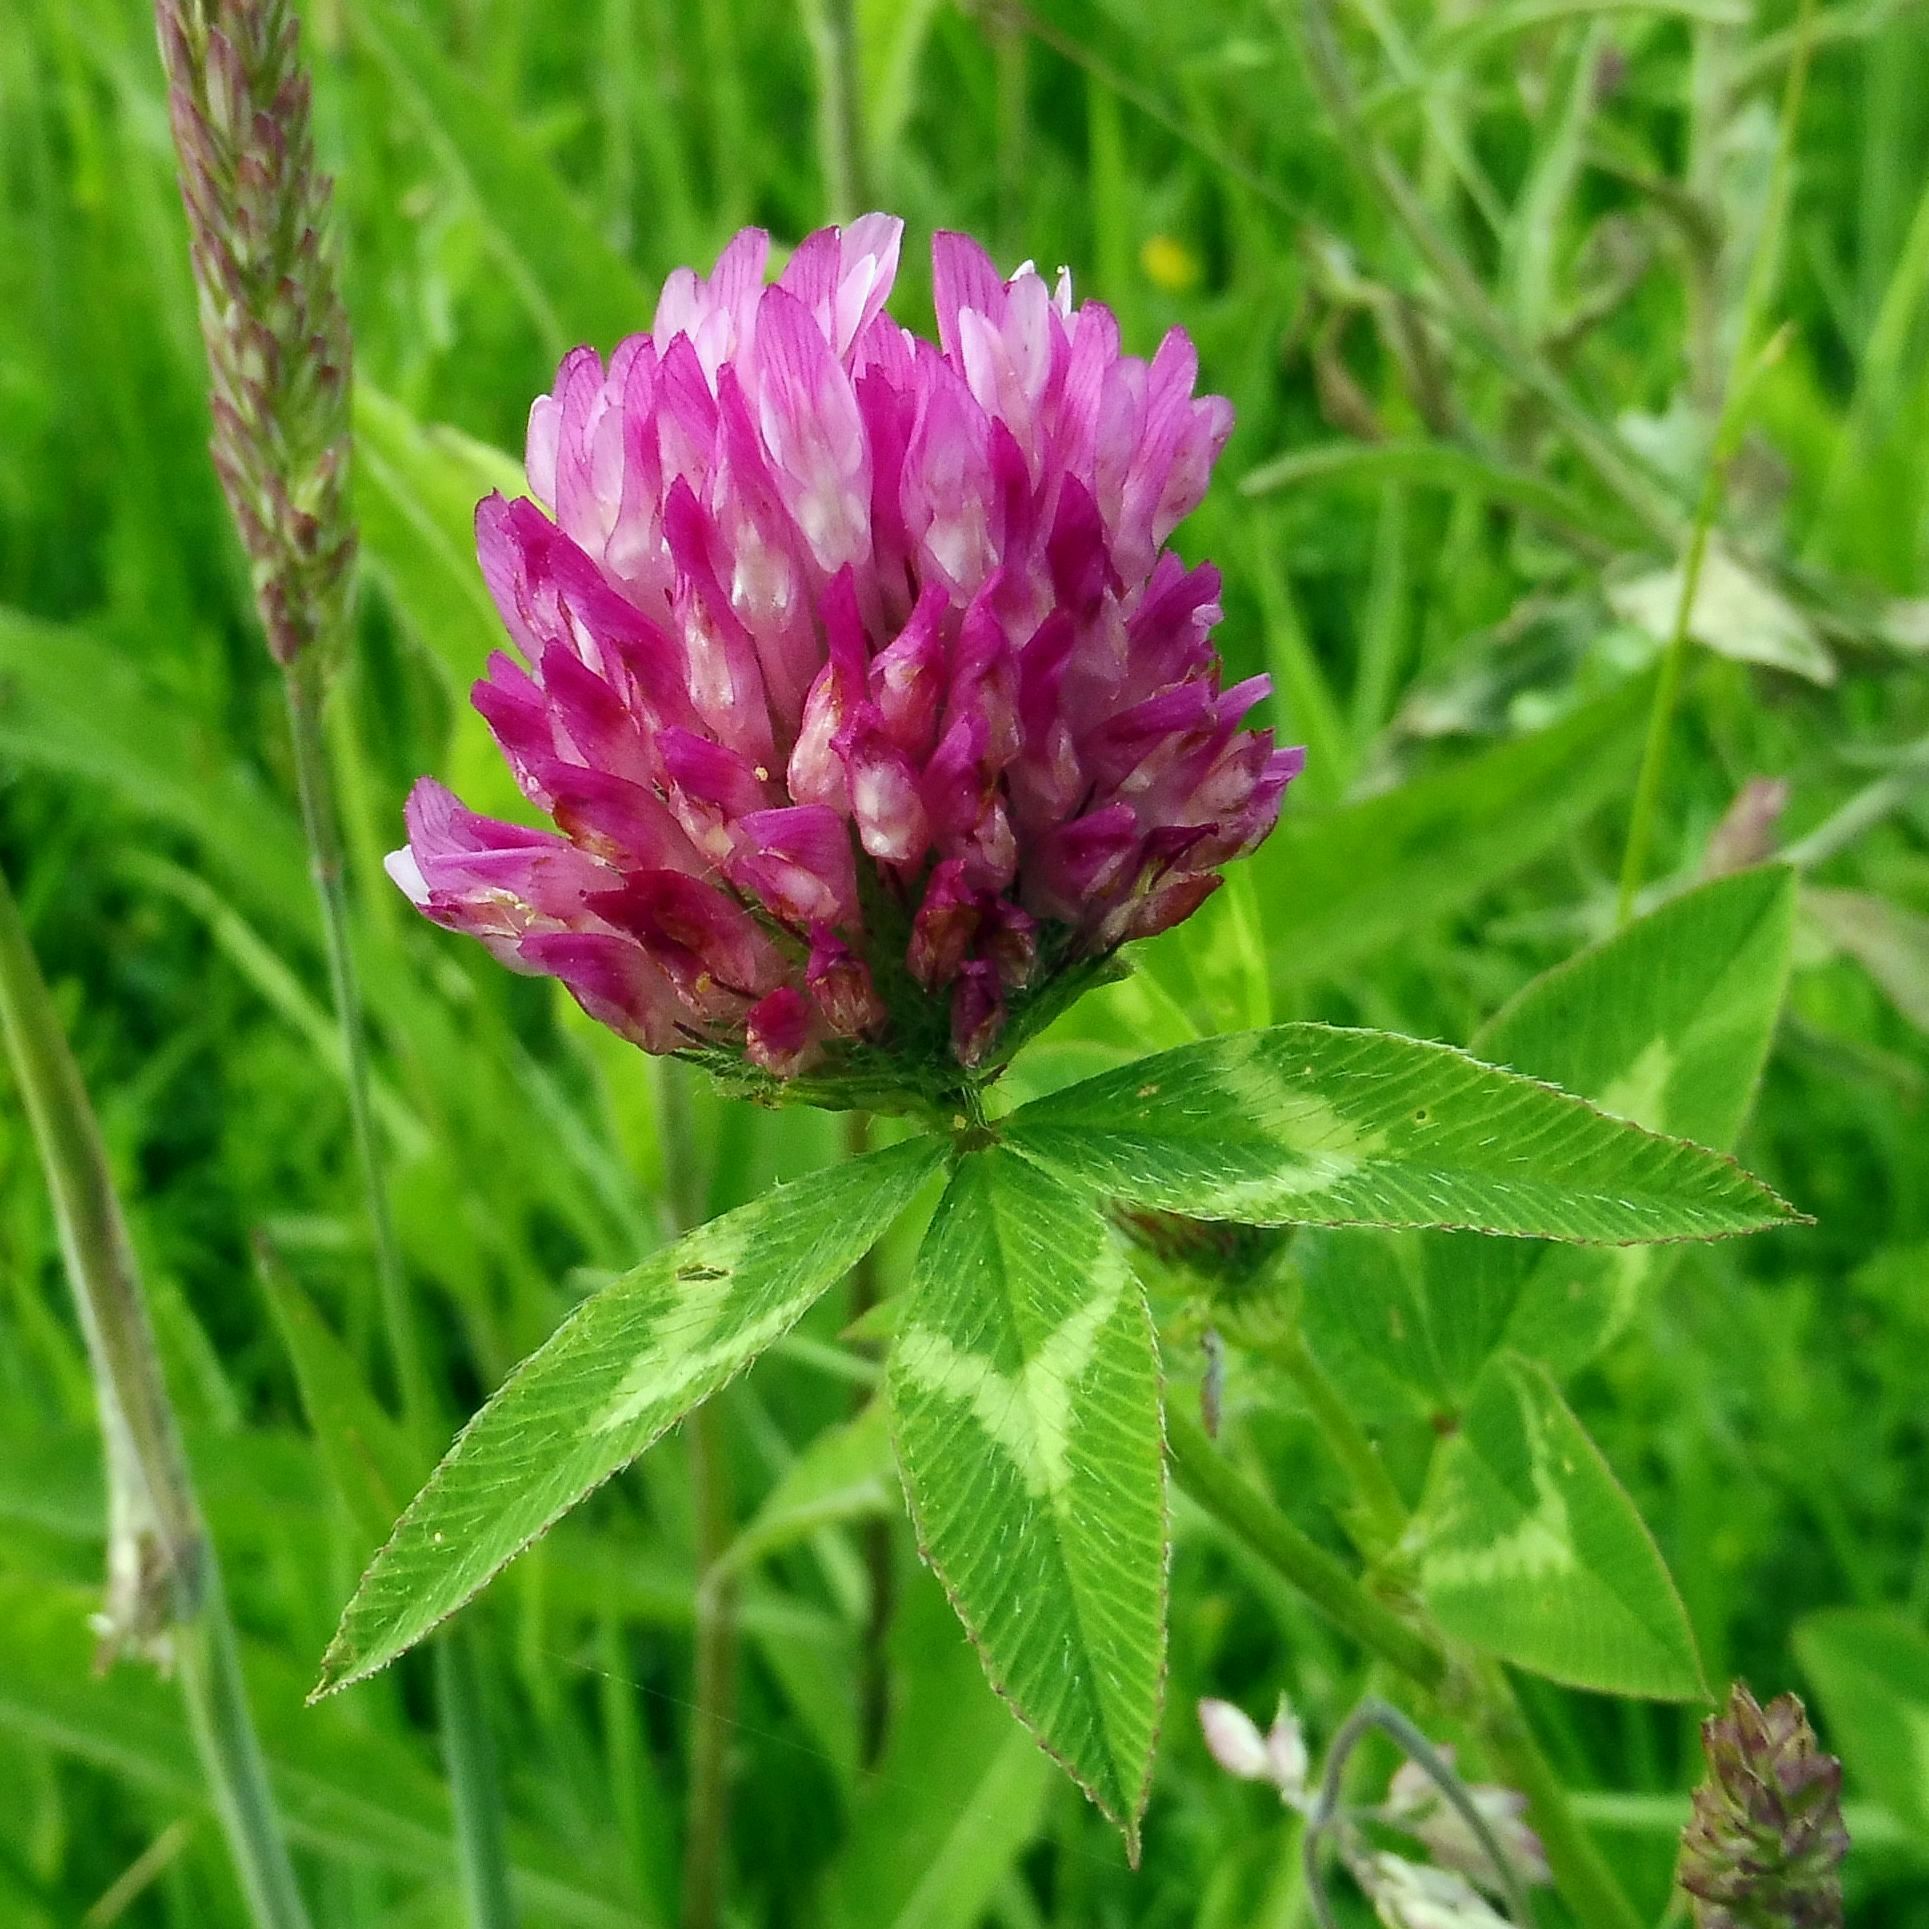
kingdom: Plantae
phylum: Tracheophyta
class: Magnoliopsida
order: Fabales
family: Fabaceae
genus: Trifolium
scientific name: Trifolium pratense
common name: Red clover
